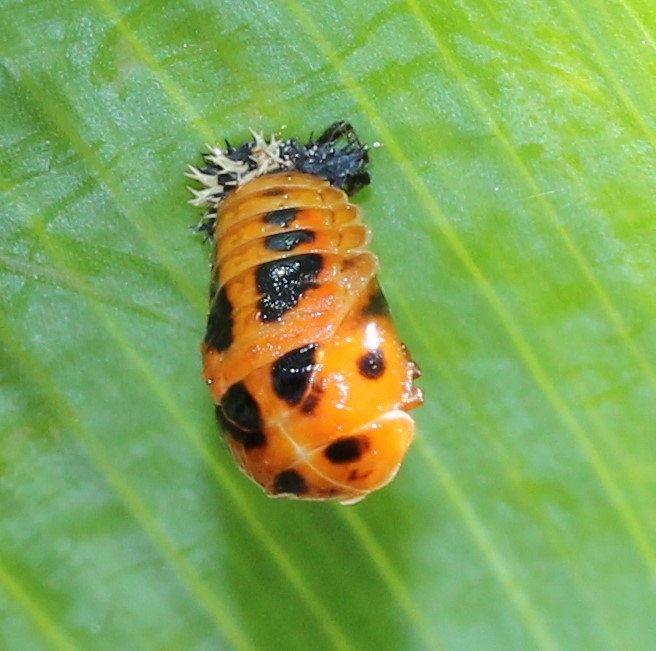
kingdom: Animalia
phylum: Arthropoda
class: Insecta
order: Coleoptera
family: Coccinellidae
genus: Harmonia
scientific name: Harmonia axyridis
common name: Harlequin ladybird
